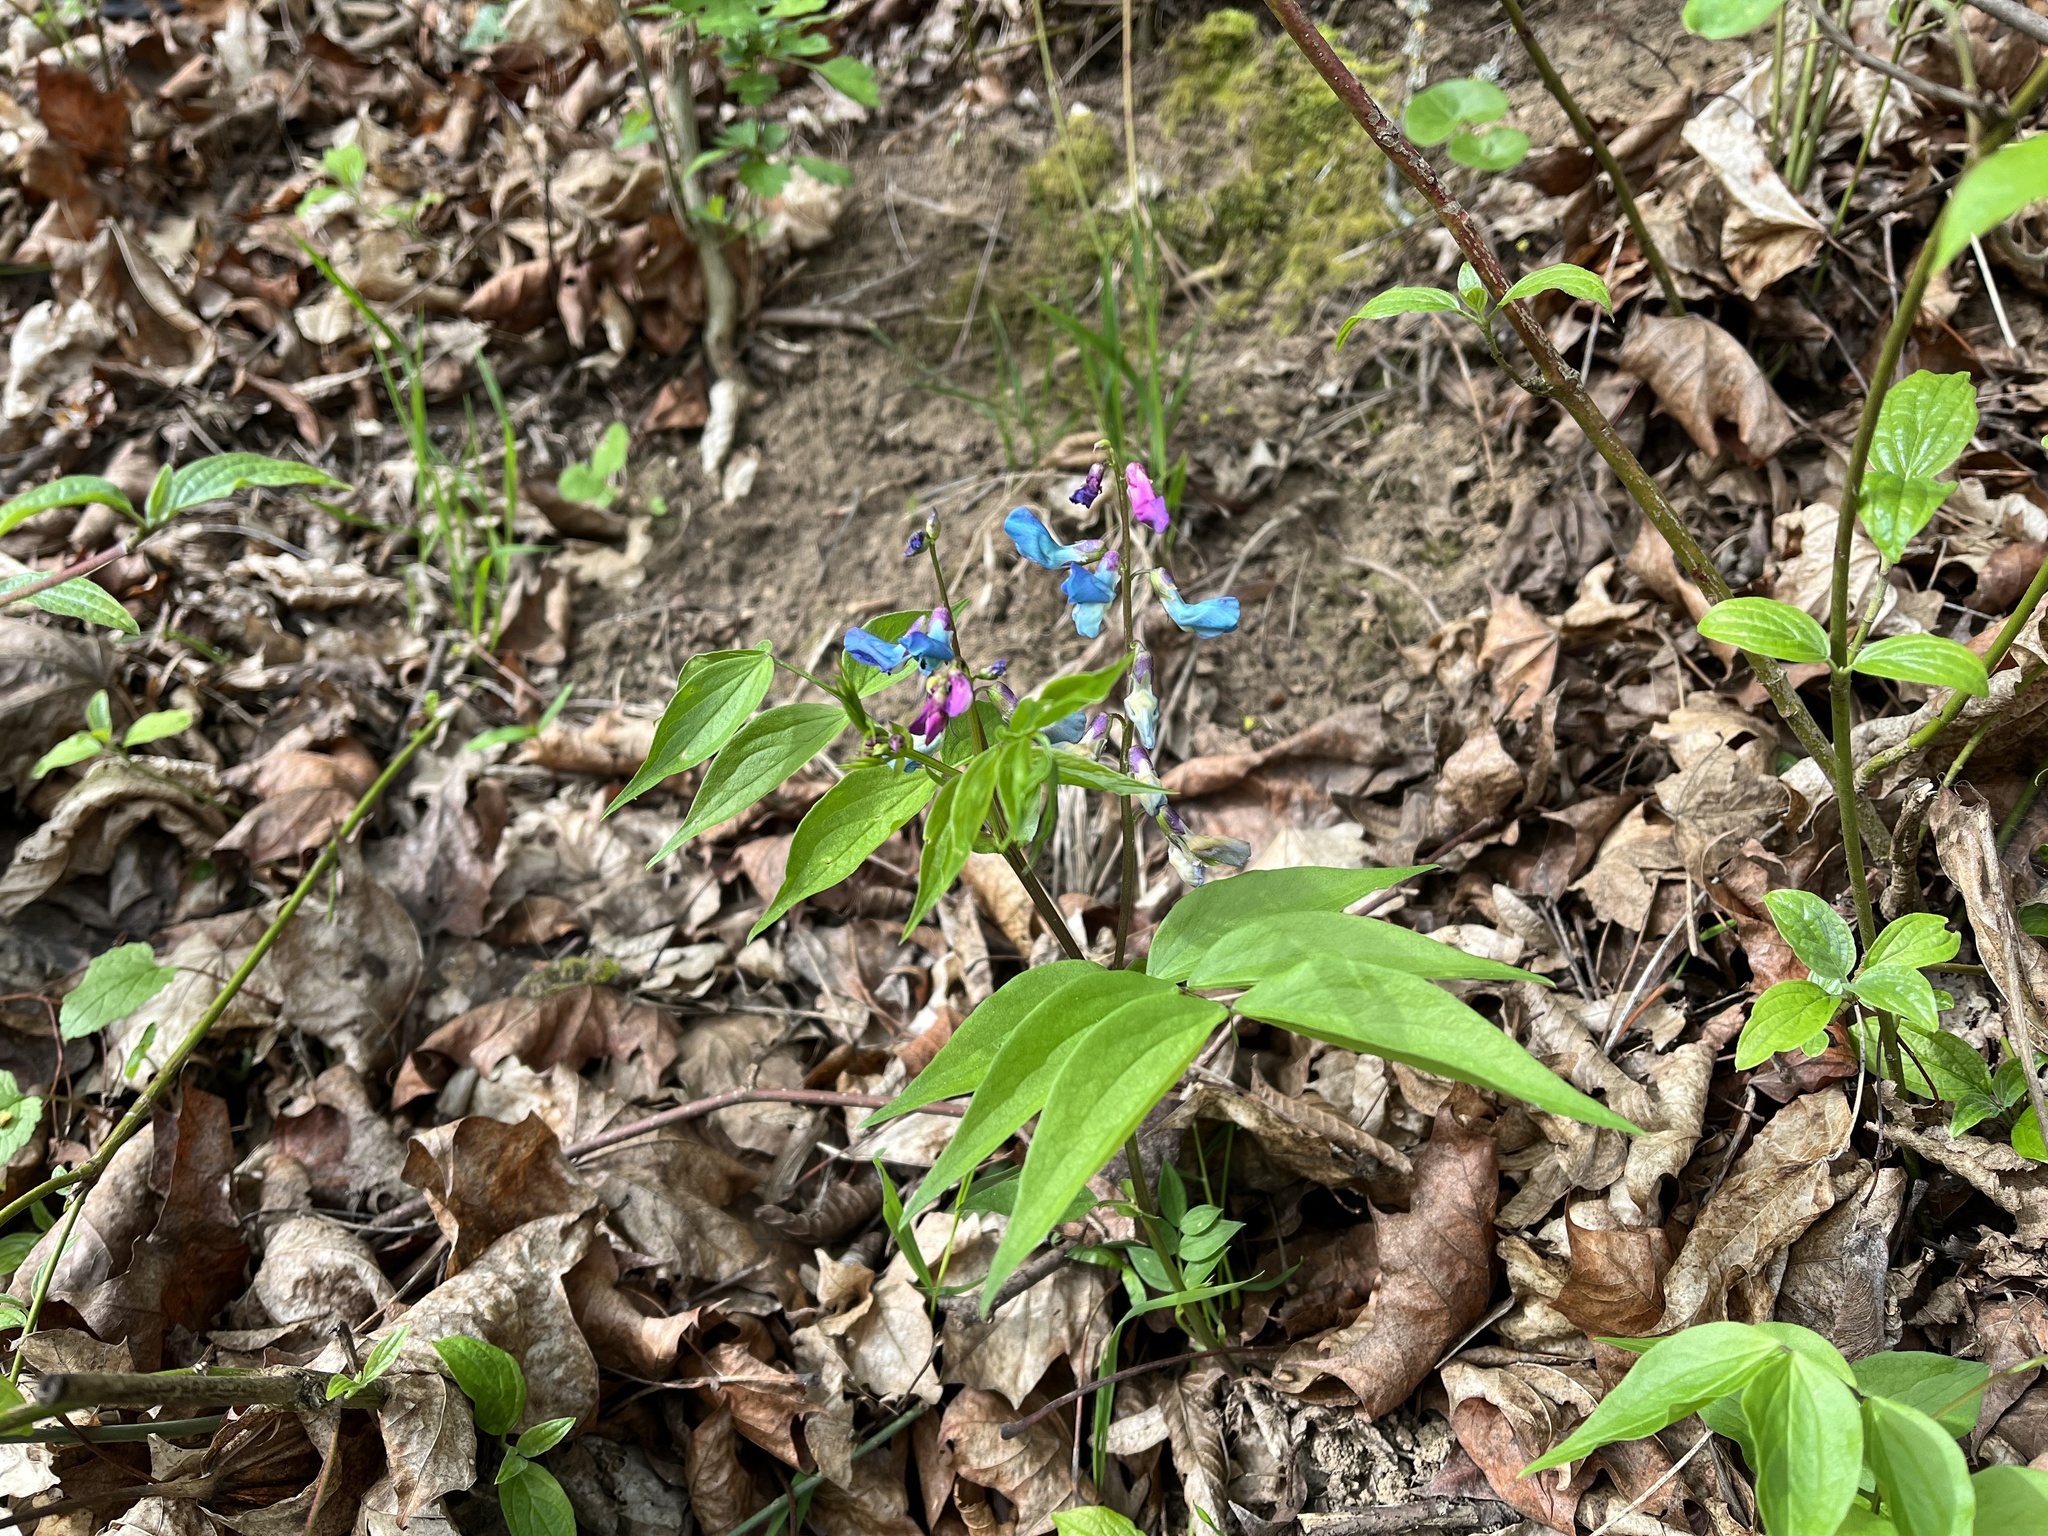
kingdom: Plantae
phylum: Tracheophyta
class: Magnoliopsida
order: Fabales
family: Fabaceae
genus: Lathyrus
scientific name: Lathyrus vernus
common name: Spring pea
